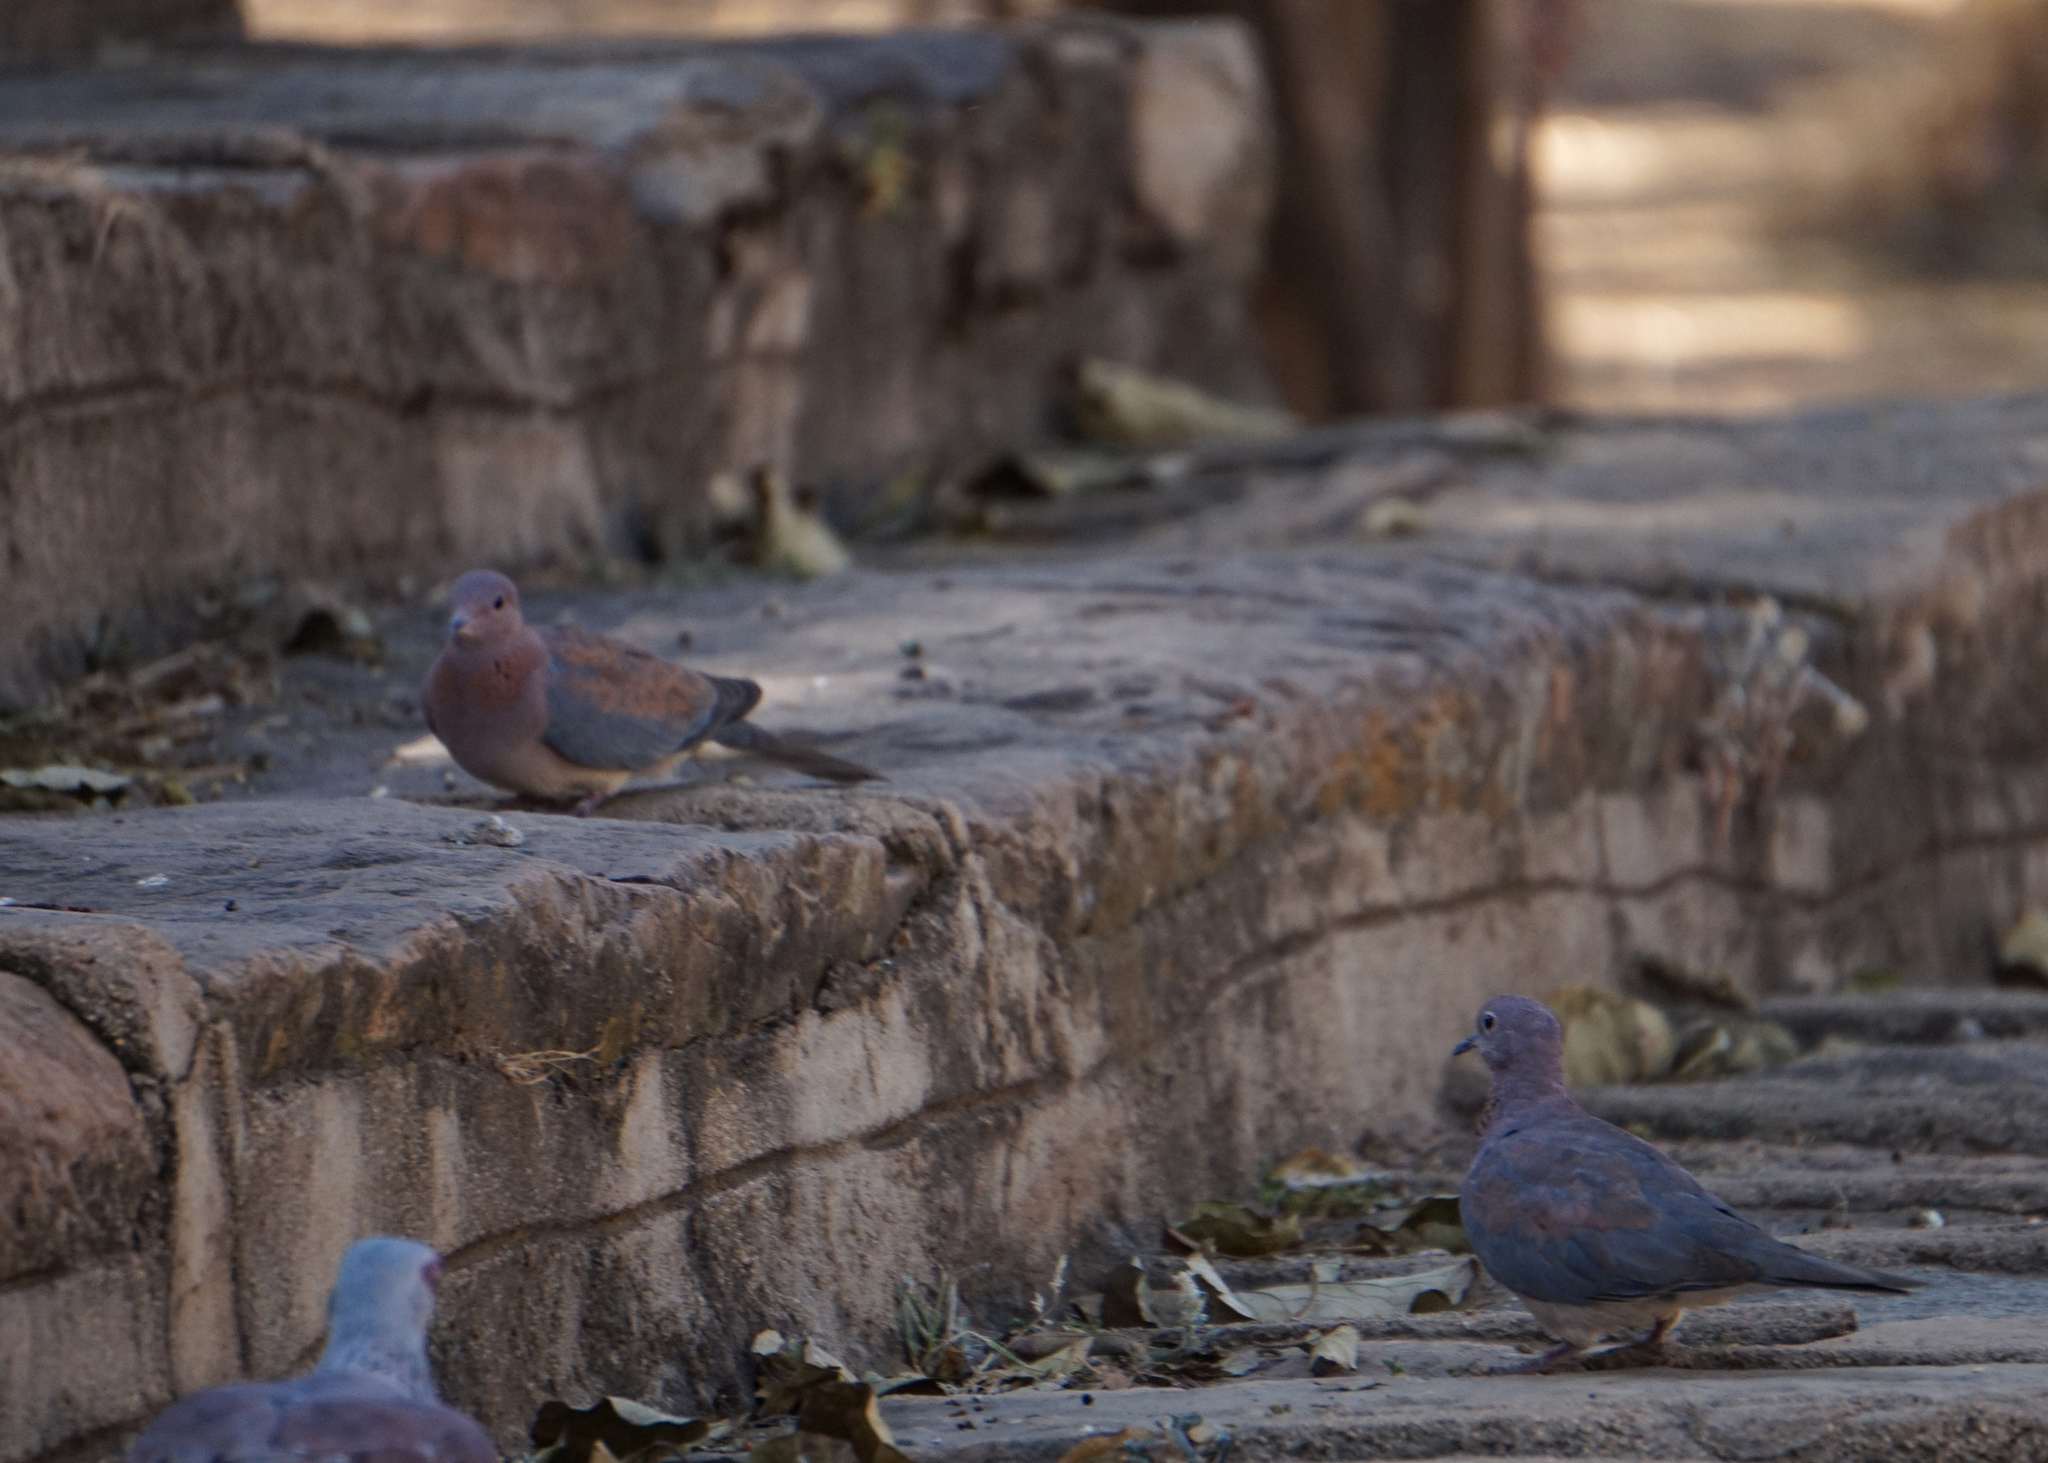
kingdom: Animalia
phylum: Chordata
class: Aves
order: Columbiformes
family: Columbidae
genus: Spilopelia
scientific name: Spilopelia senegalensis
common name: Laughing dove
